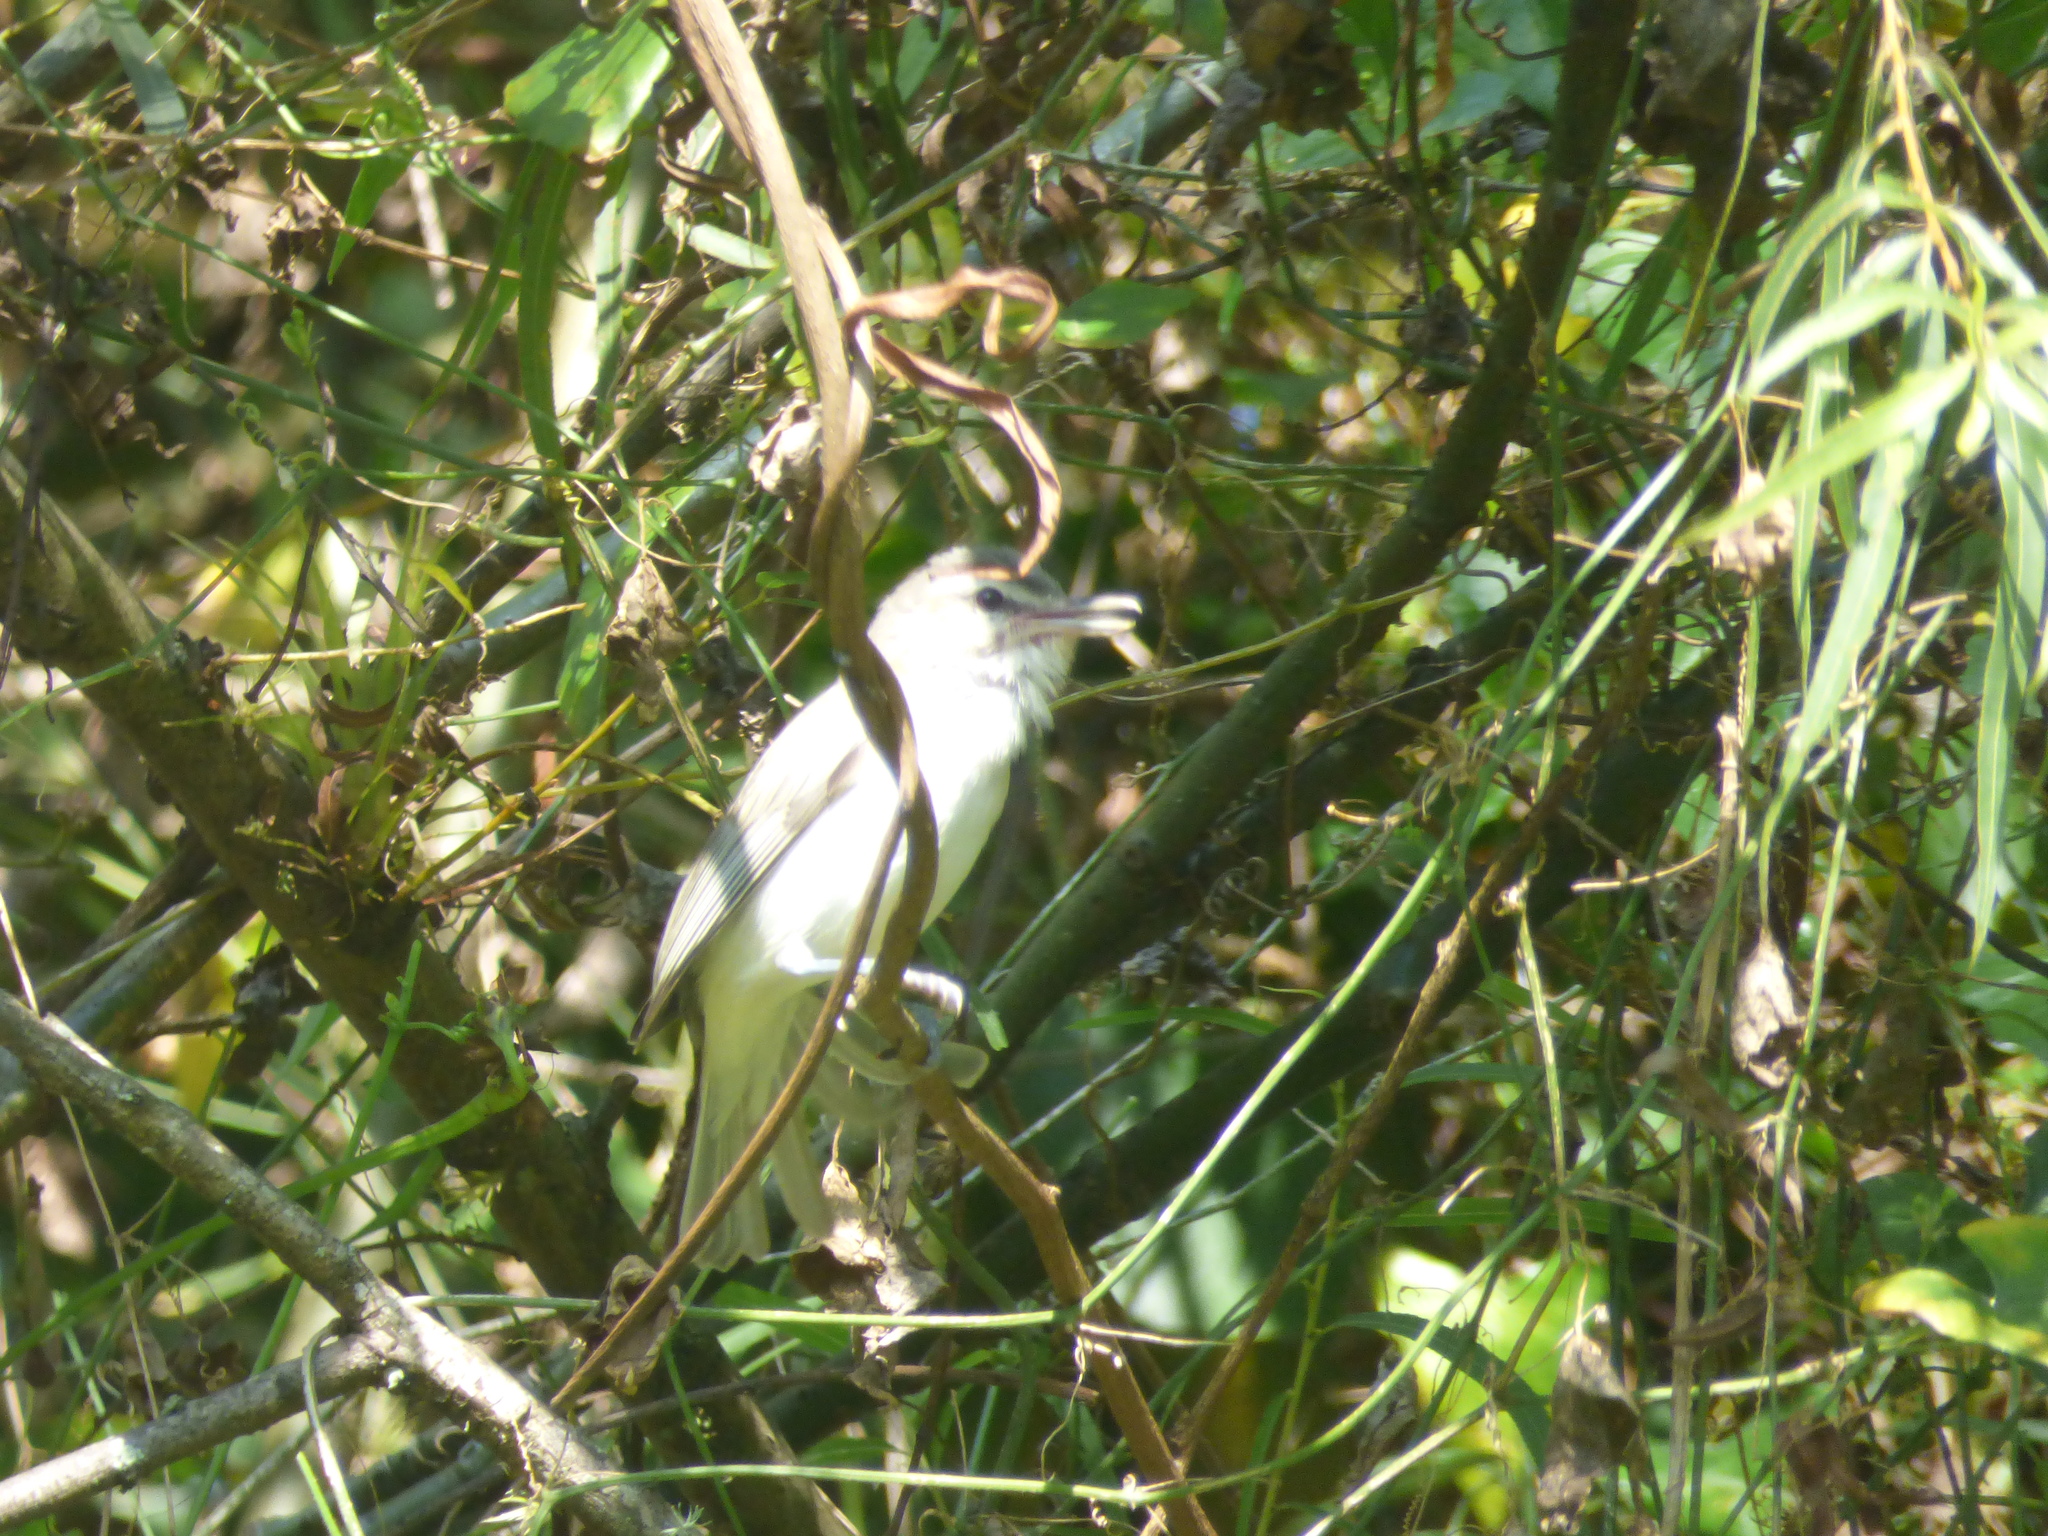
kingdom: Animalia
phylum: Chordata
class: Aves
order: Passeriformes
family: Vireonidae
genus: Vireo
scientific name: Vireo leucophrys
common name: Brown-capped vireo
